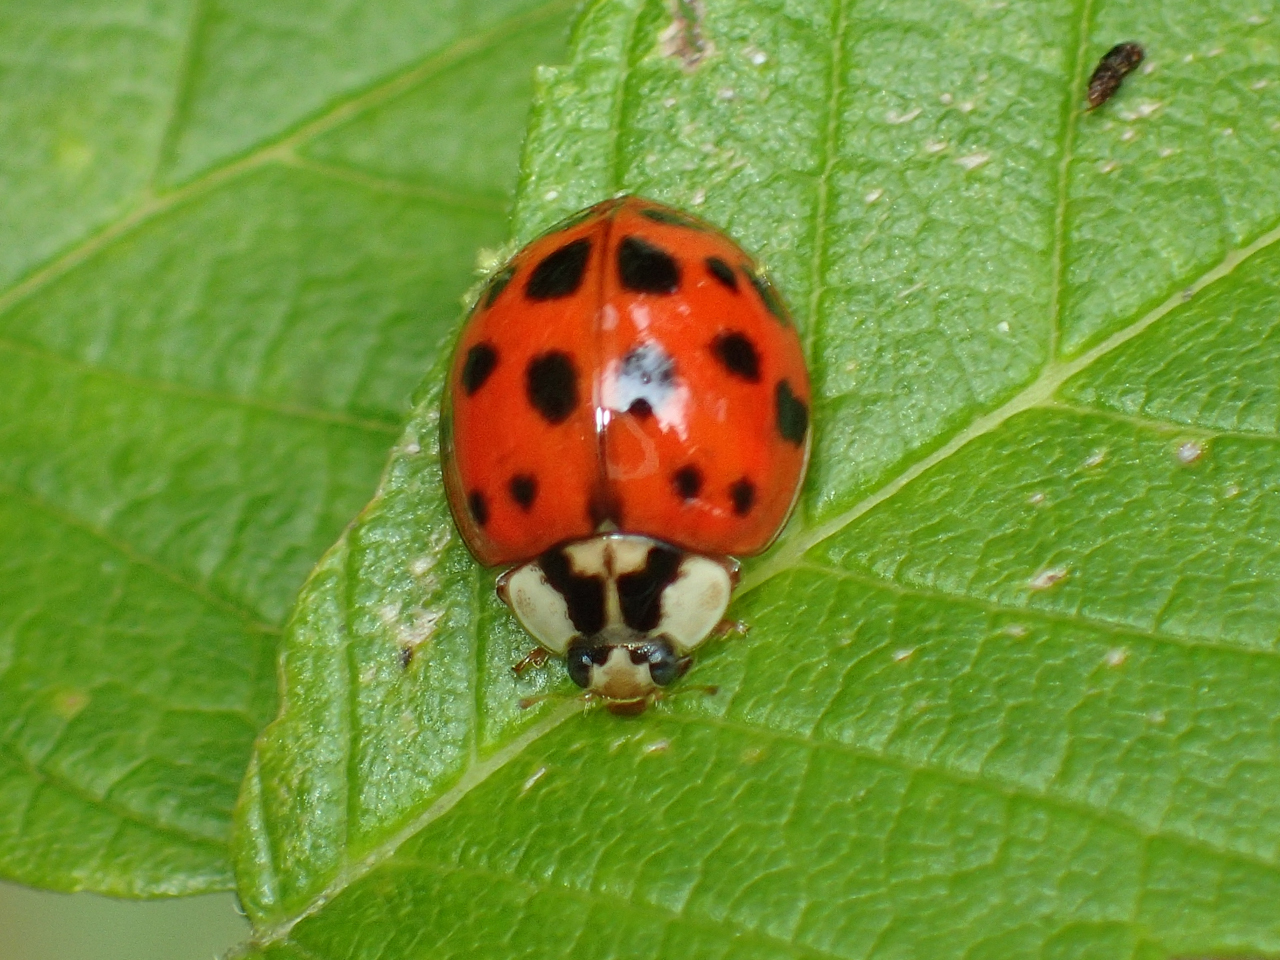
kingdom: Animalia
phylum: Arthropoda
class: Insecta
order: Coleoptera
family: Coccinellidae
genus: Harmonia
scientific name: Harmonia axyridis
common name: Harlequin ladybird
